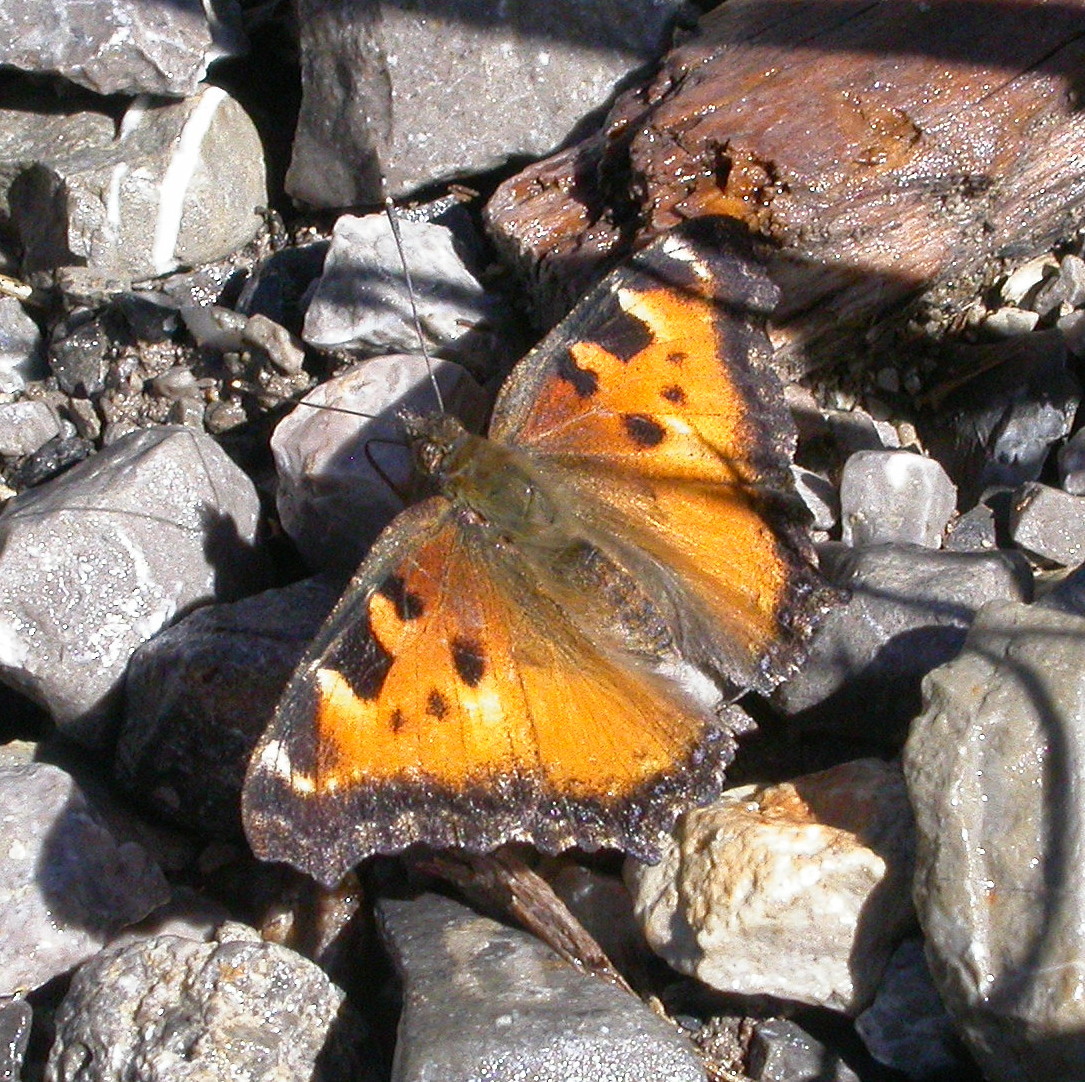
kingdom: Animalia
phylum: Arthropoda
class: Insecta
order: Lepidoptera
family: Nymphalidae
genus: Nymphalis
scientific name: Nymphalis californica
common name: California tortoiseshell
